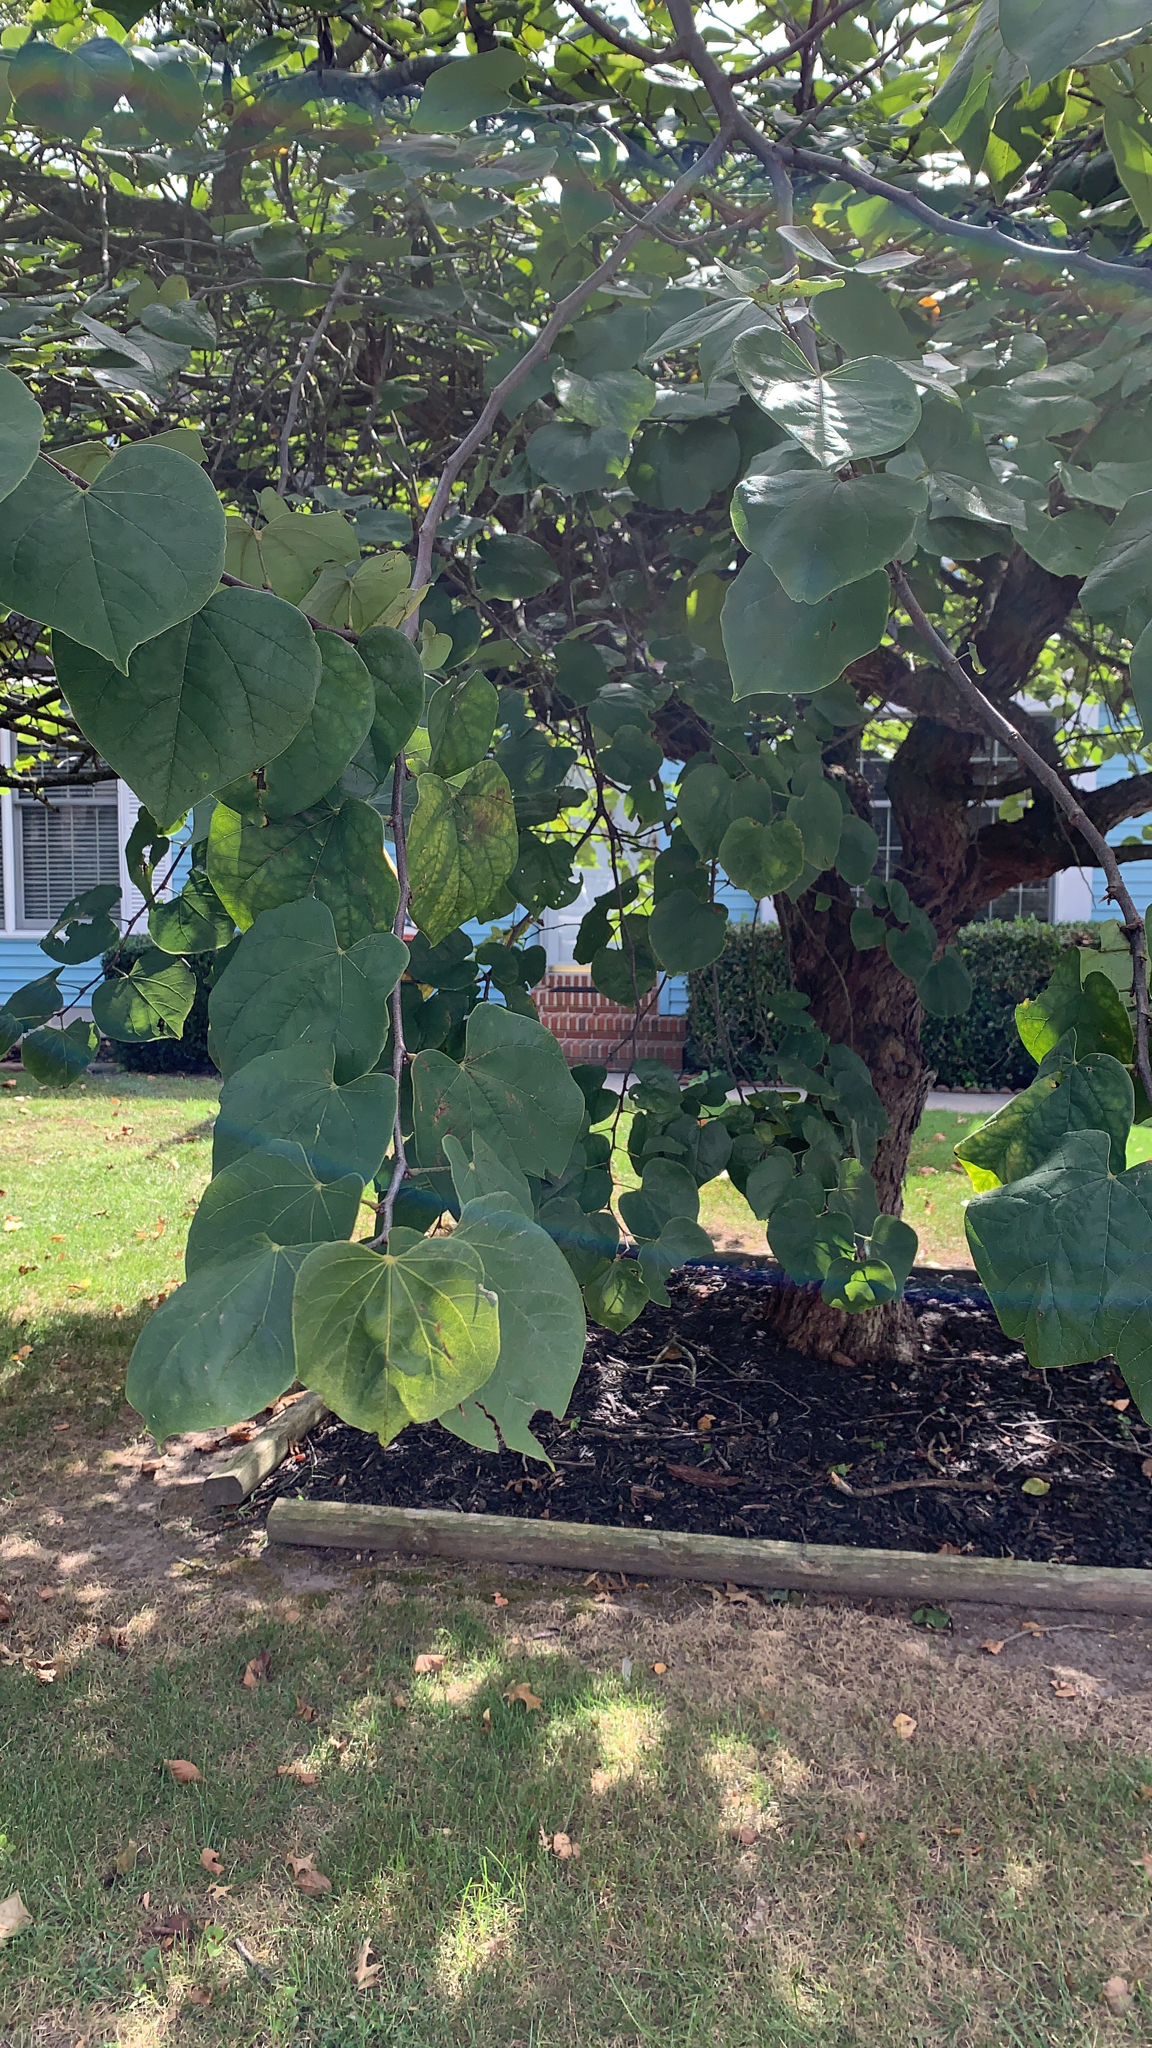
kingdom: Plantae
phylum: Tracheophyta
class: Magnoliopsida
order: Fabales
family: Fabaceae
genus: Cercis
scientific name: Cercis canadensis
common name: Eastern redbud
